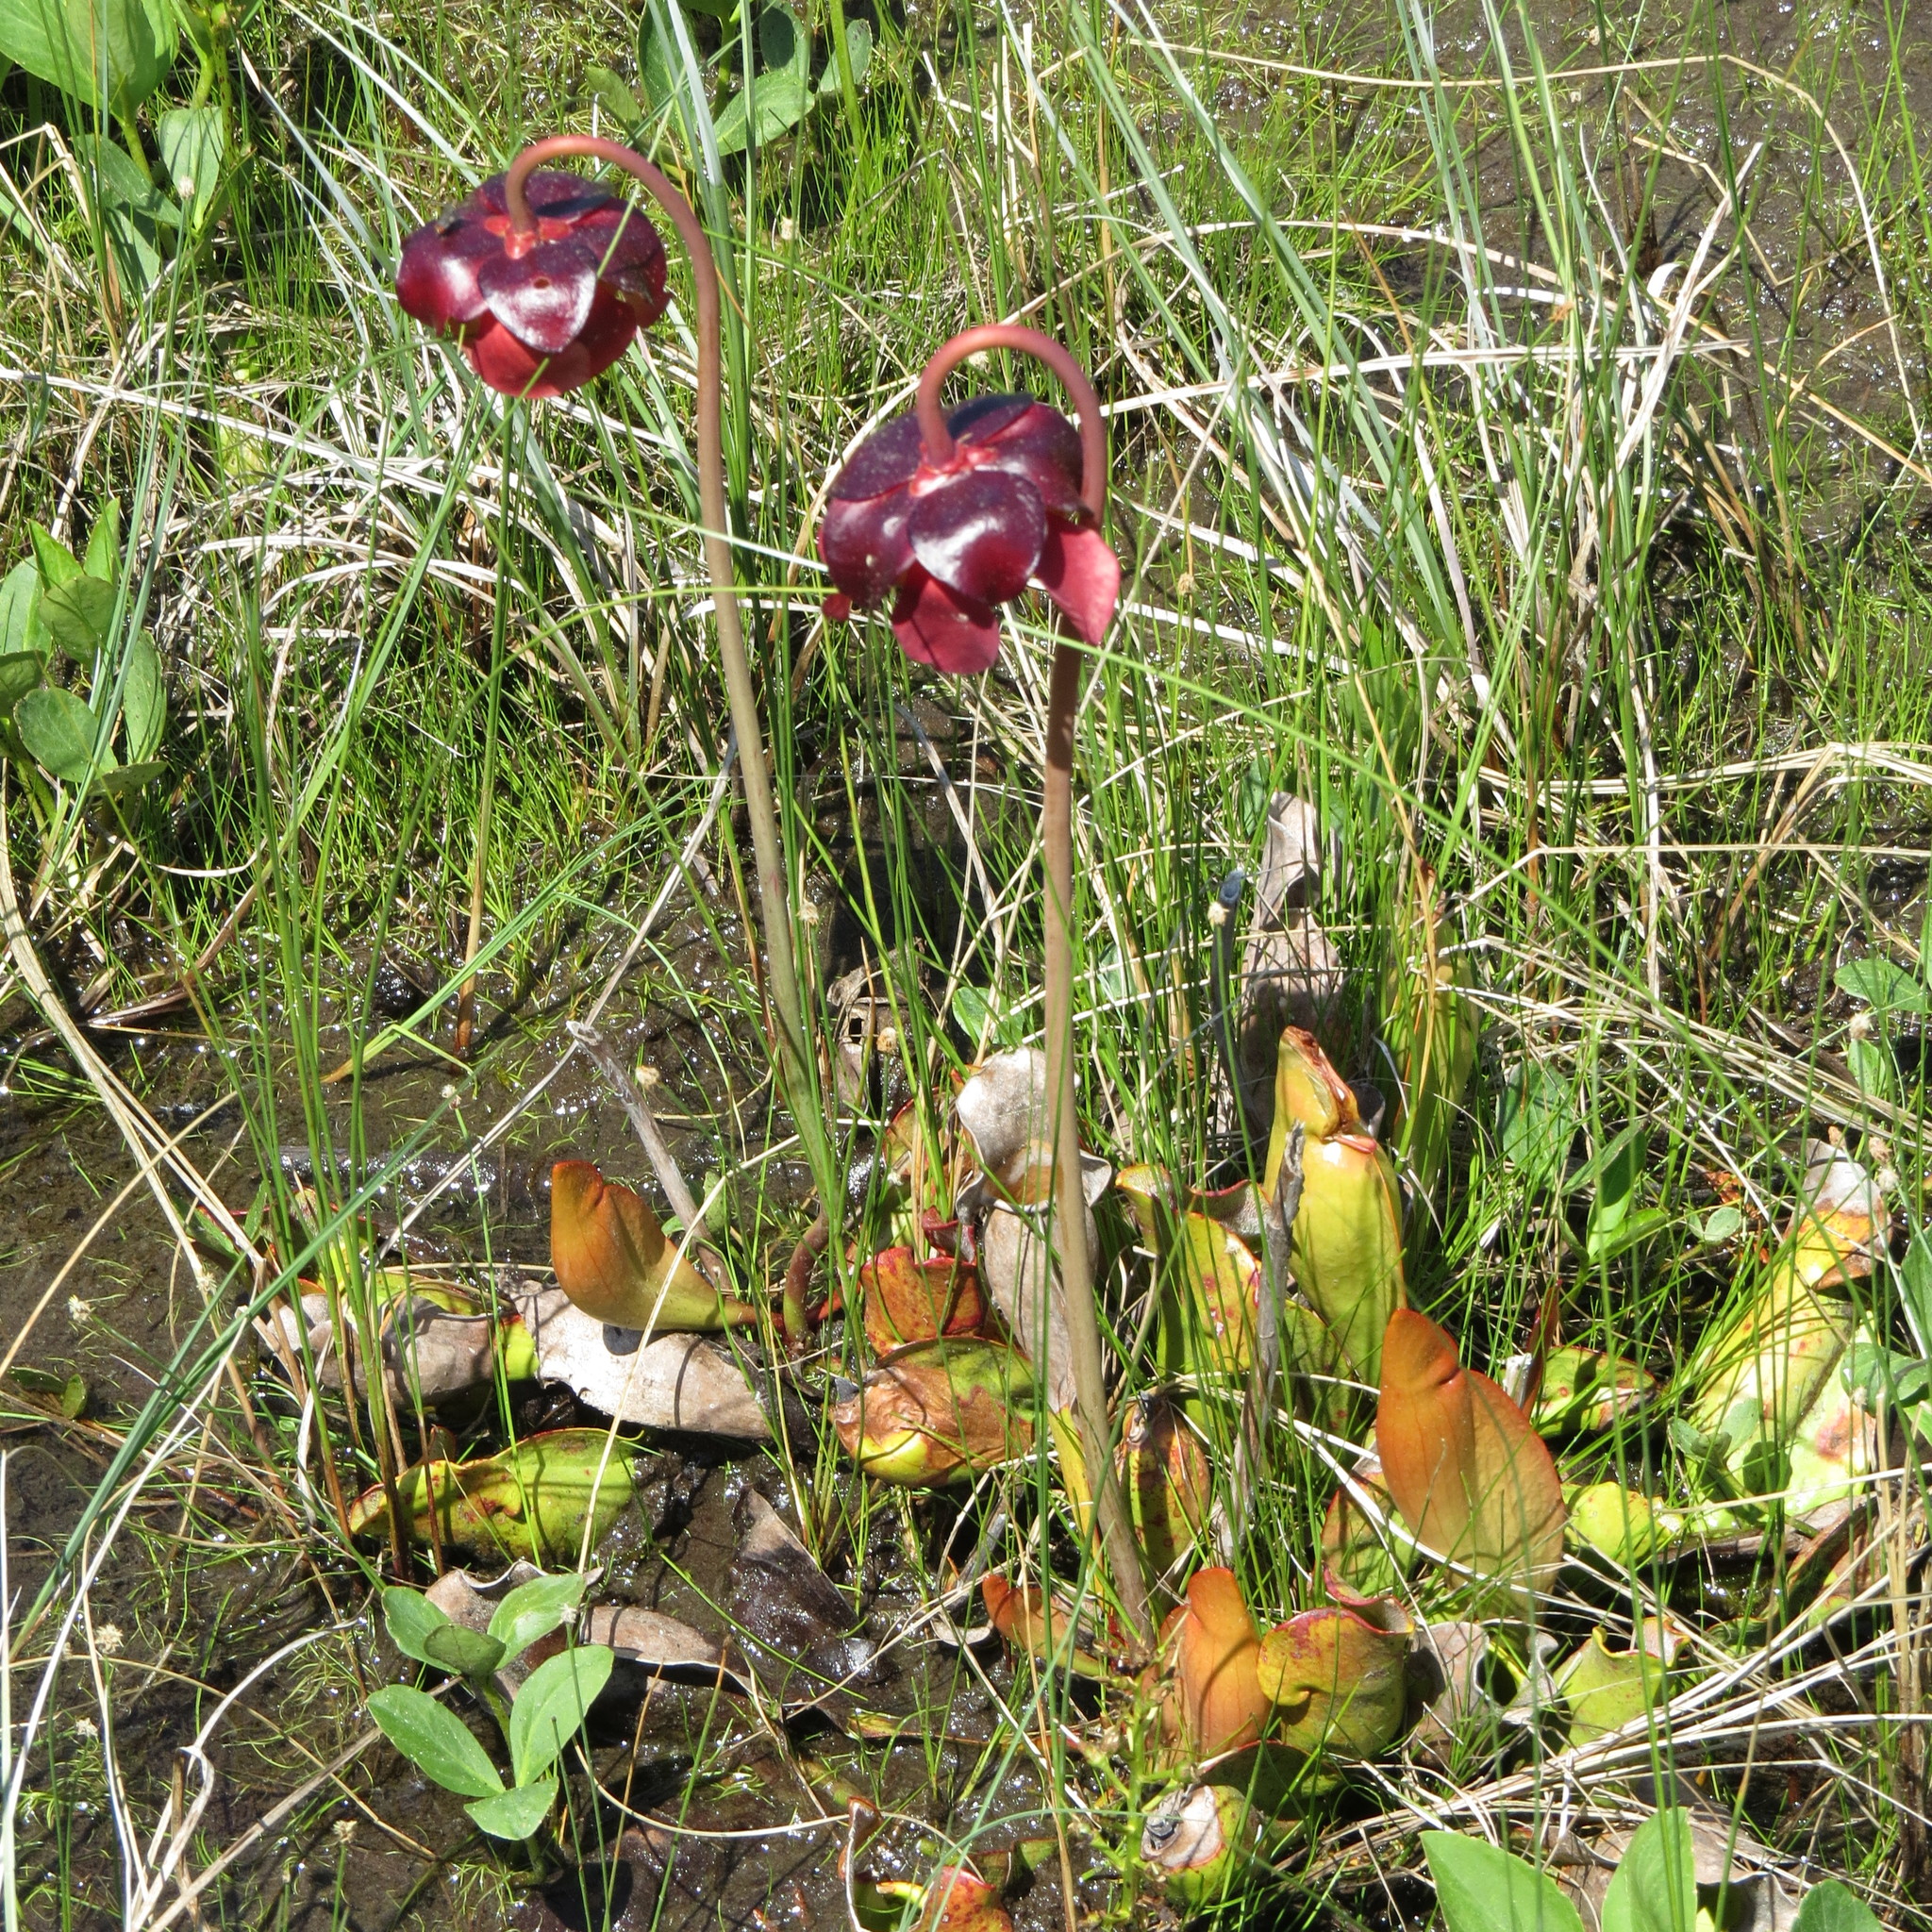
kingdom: Plantae
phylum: Tracheophyta
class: Magnoliopsida
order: Ericales
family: Sarraceniaceae
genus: Sarracenia
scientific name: Sarracenia purpurea
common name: Pitcherplant
